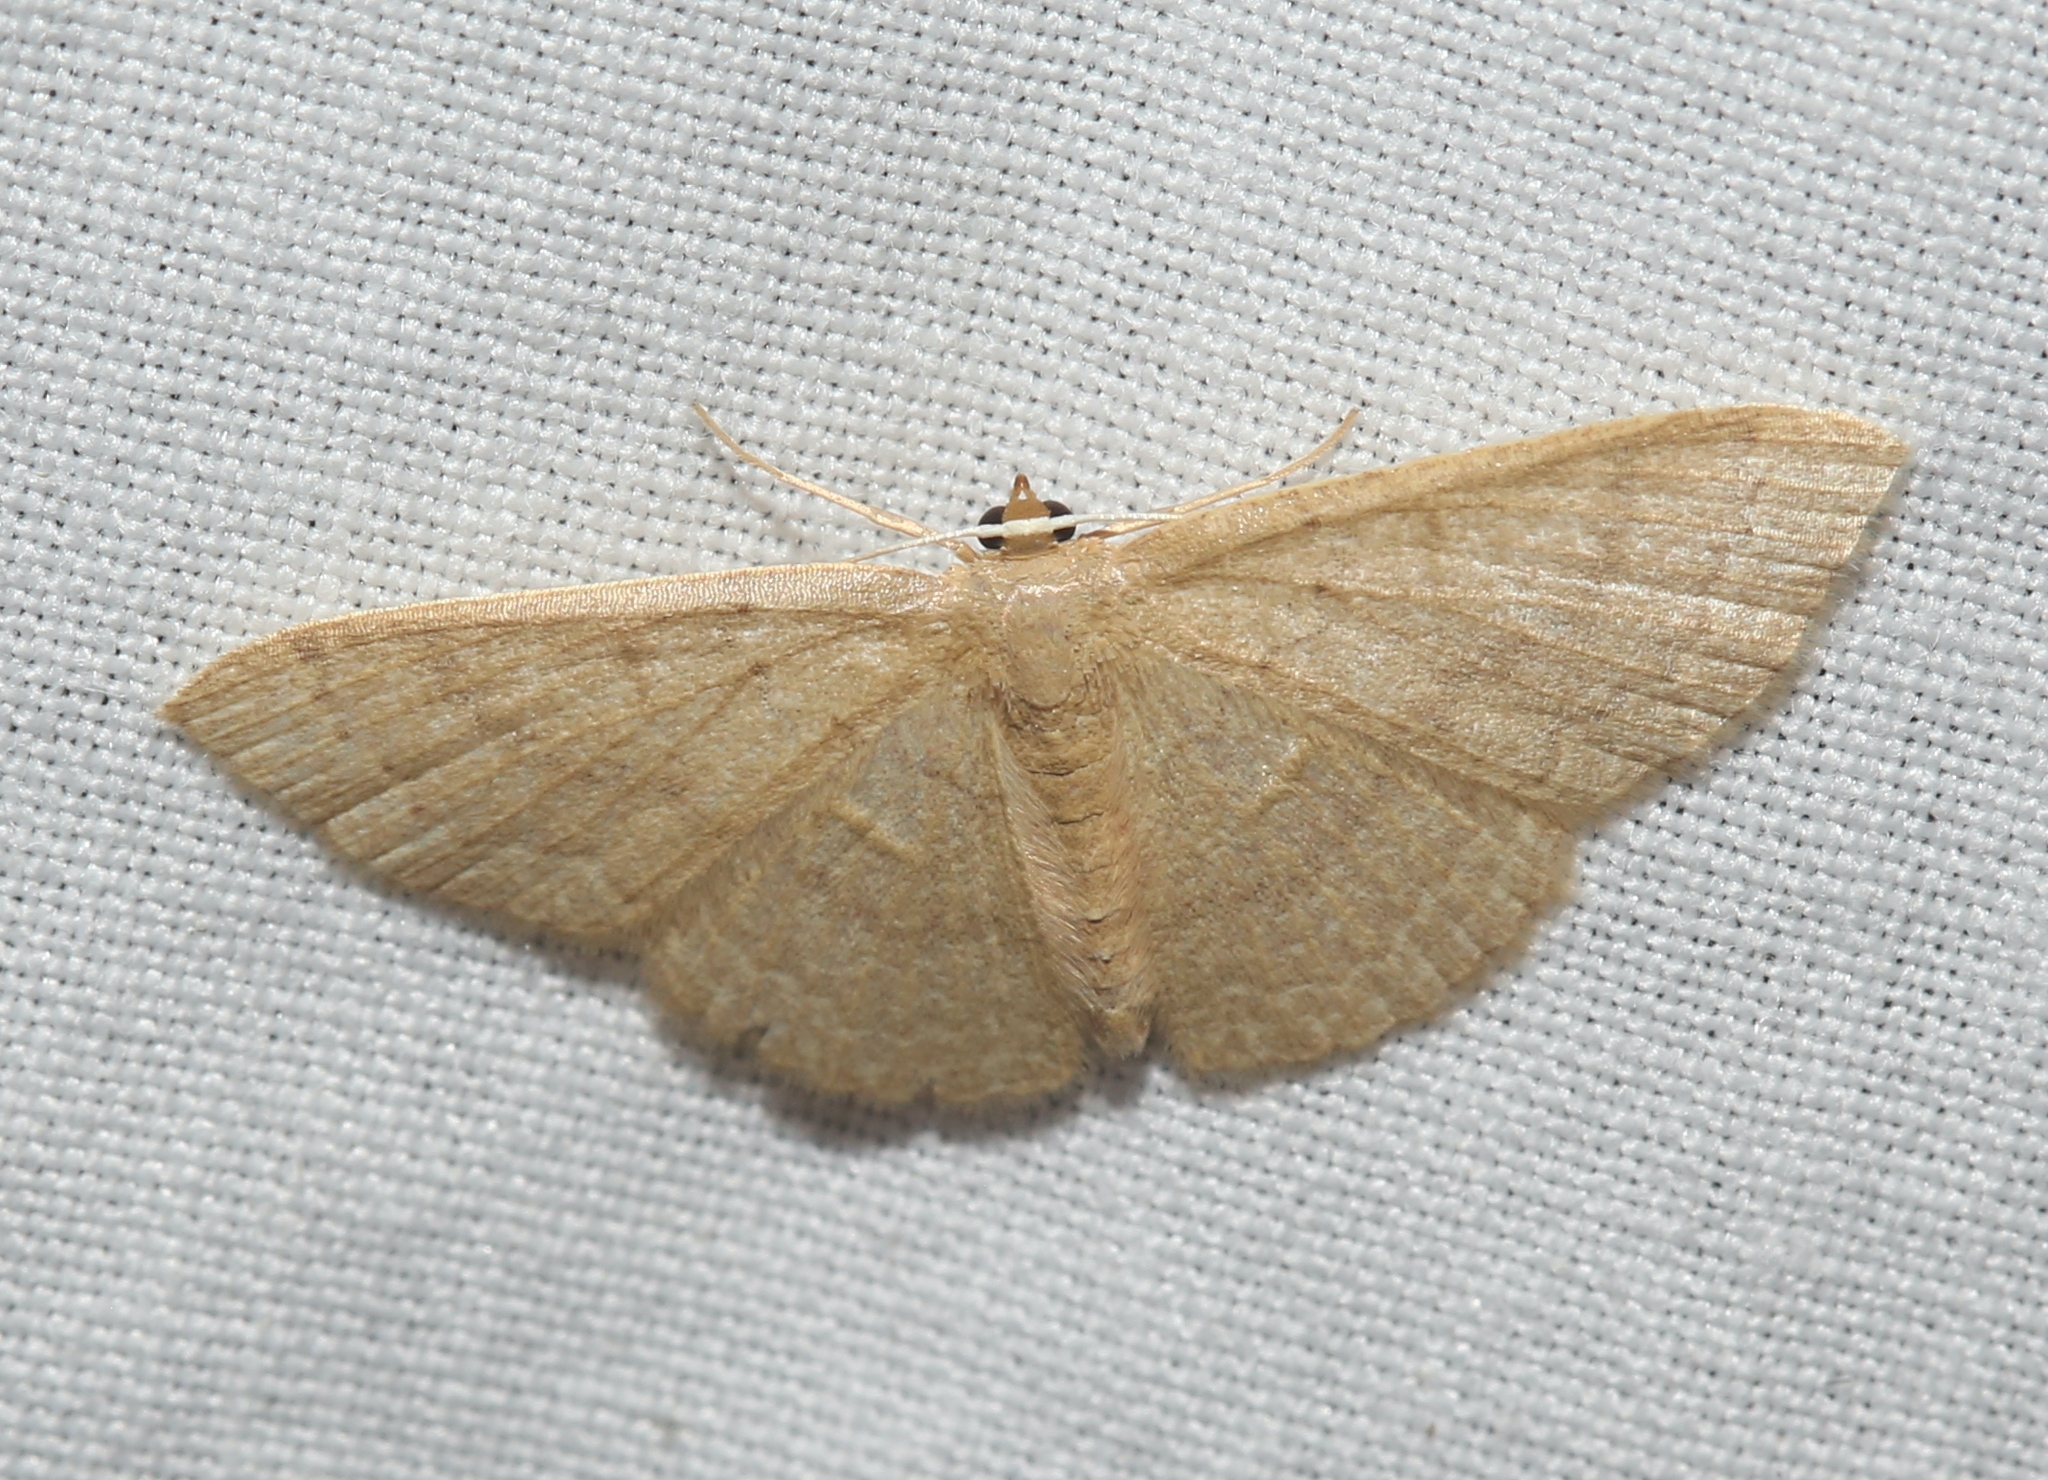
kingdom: Animalia
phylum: Arthropoda
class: Insecta
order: Lepidoptera
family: Geometridae
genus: Pleuroprucha
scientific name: Pleuroprucha insulsaria
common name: Common tan wave
